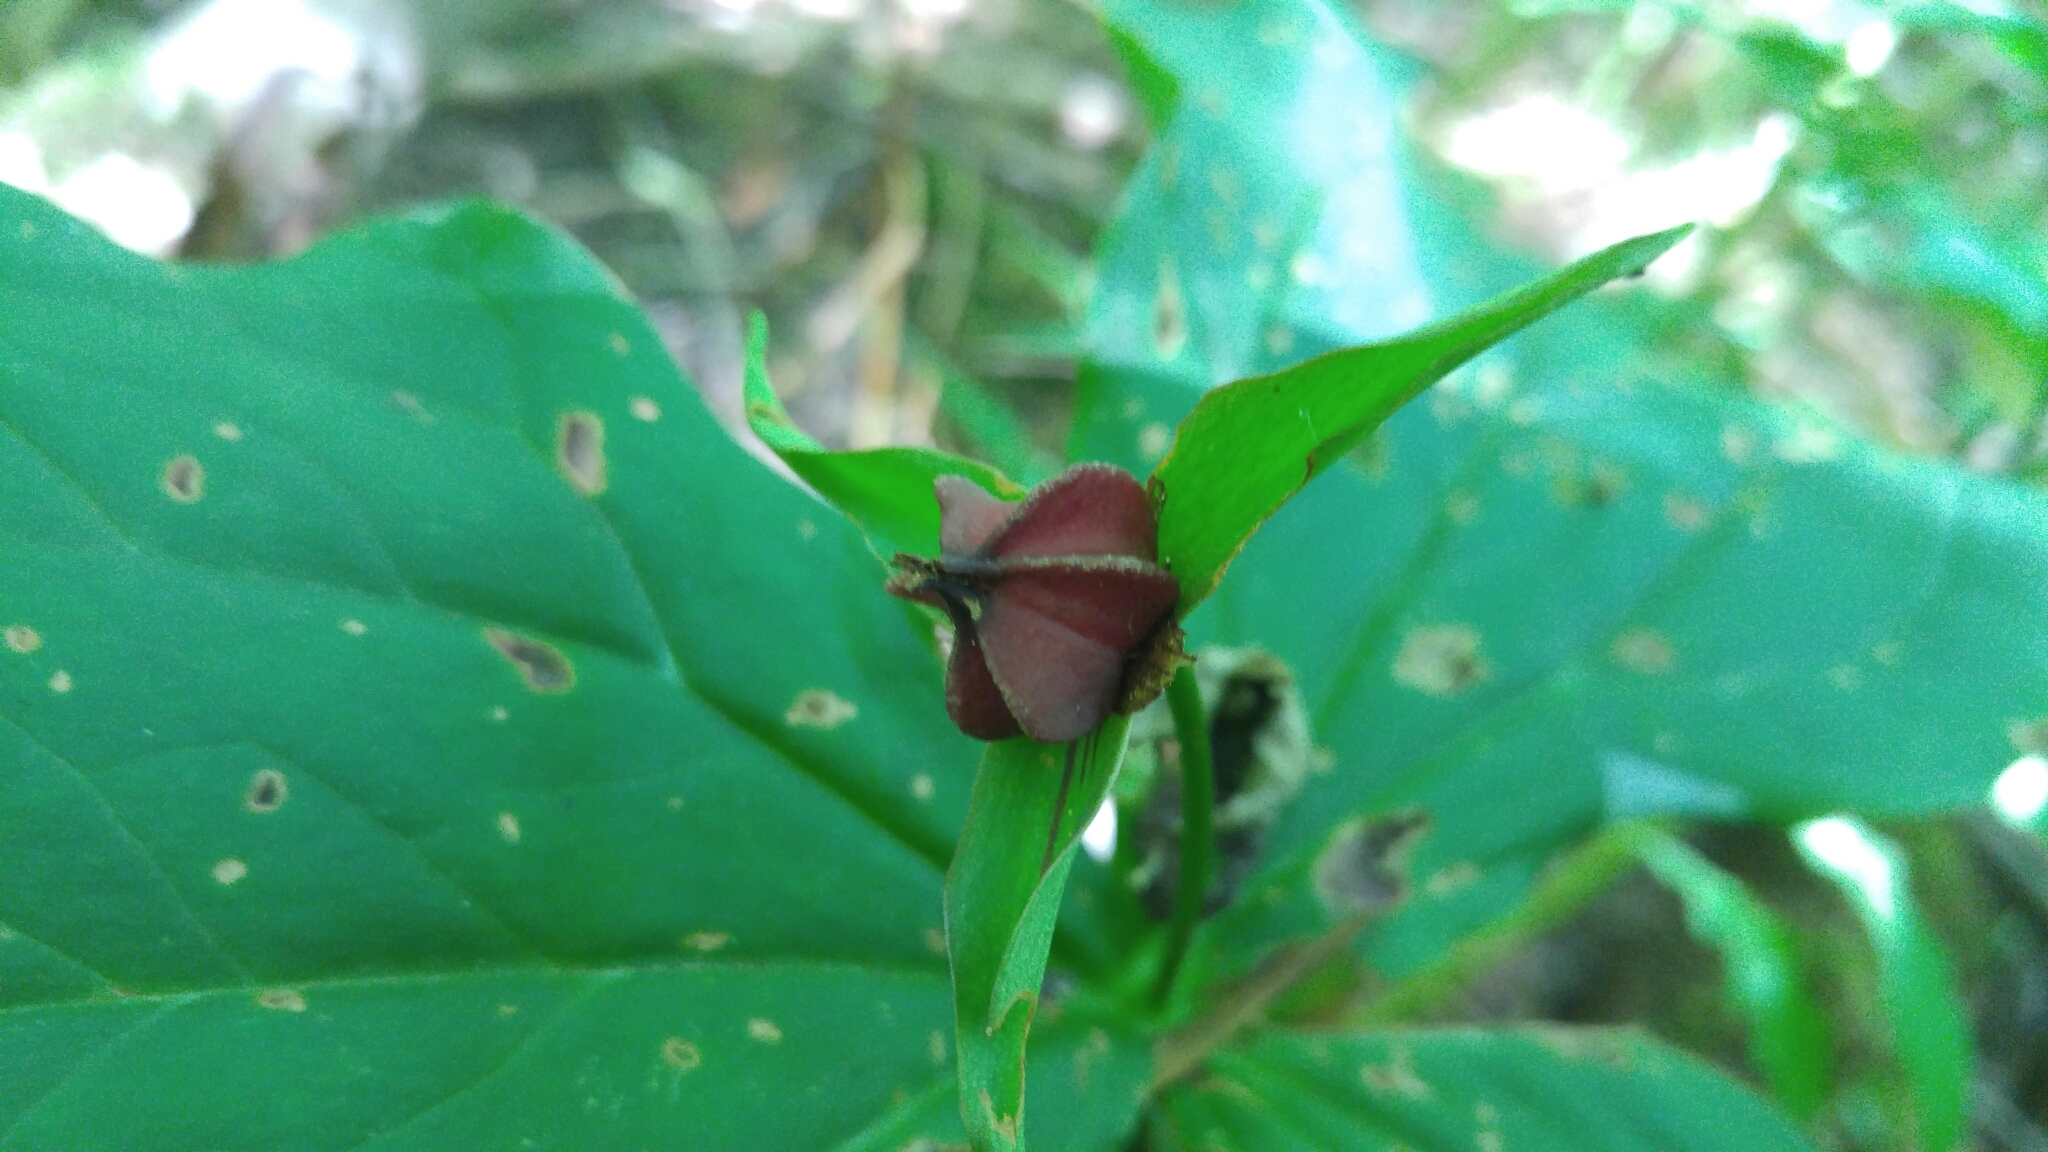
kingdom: Plantae
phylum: Tracheophyta
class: Liliopsida
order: Liliales
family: Melanthiaceae
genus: Trillium
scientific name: Trillium erectum
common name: Purple trillium
